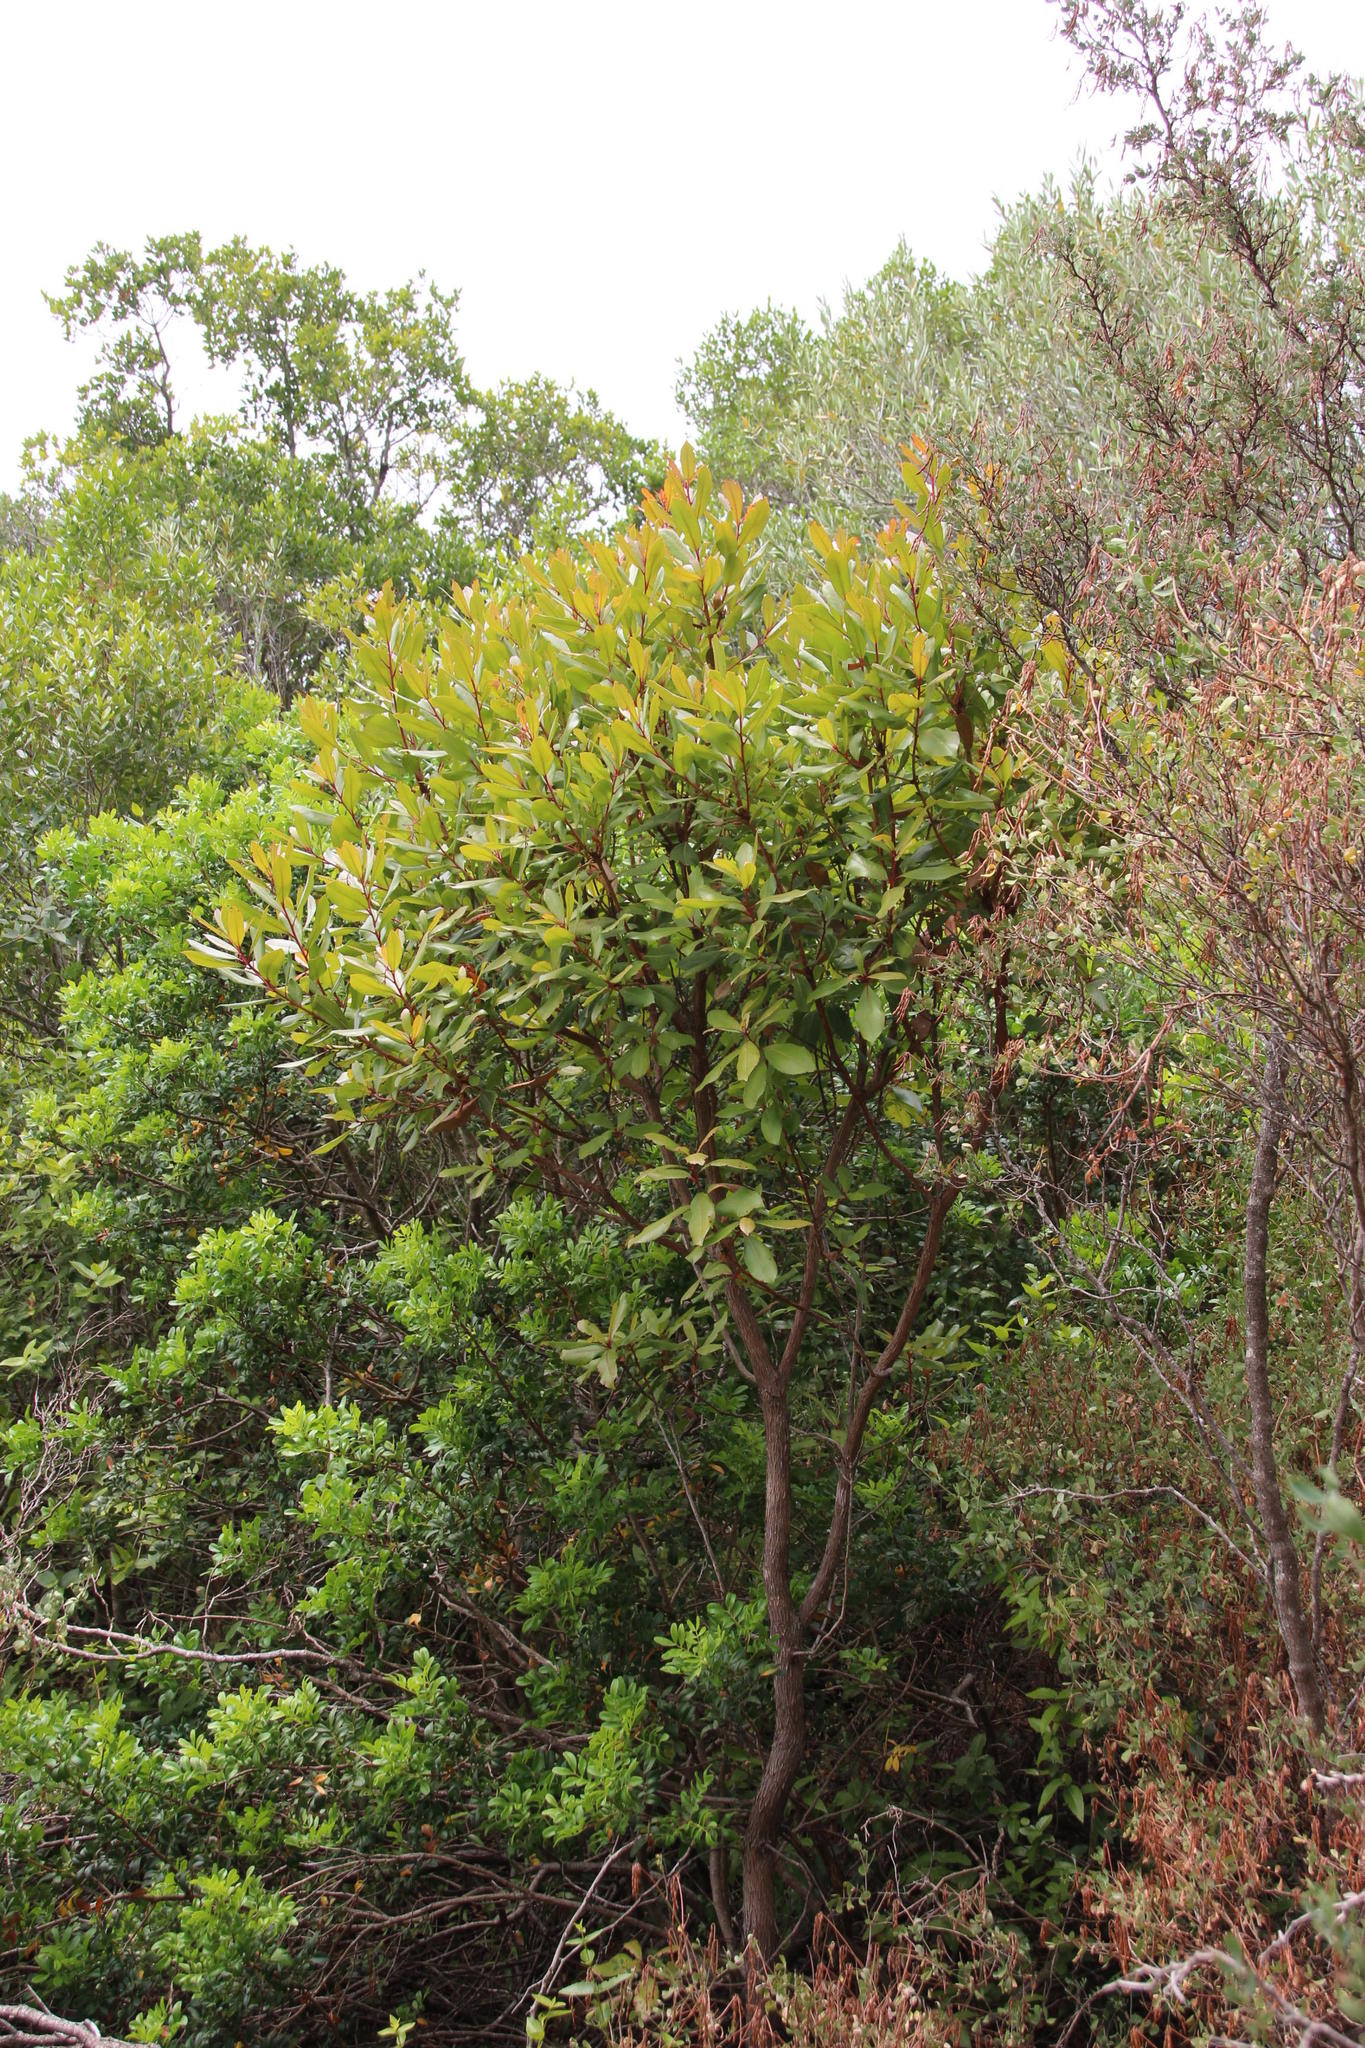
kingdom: Plantae
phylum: Tracheophyta
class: Magnoliopsida
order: Ericales
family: Ericaceae
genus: Arbutus
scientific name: Arbutus unedo
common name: Strawberry-tree
